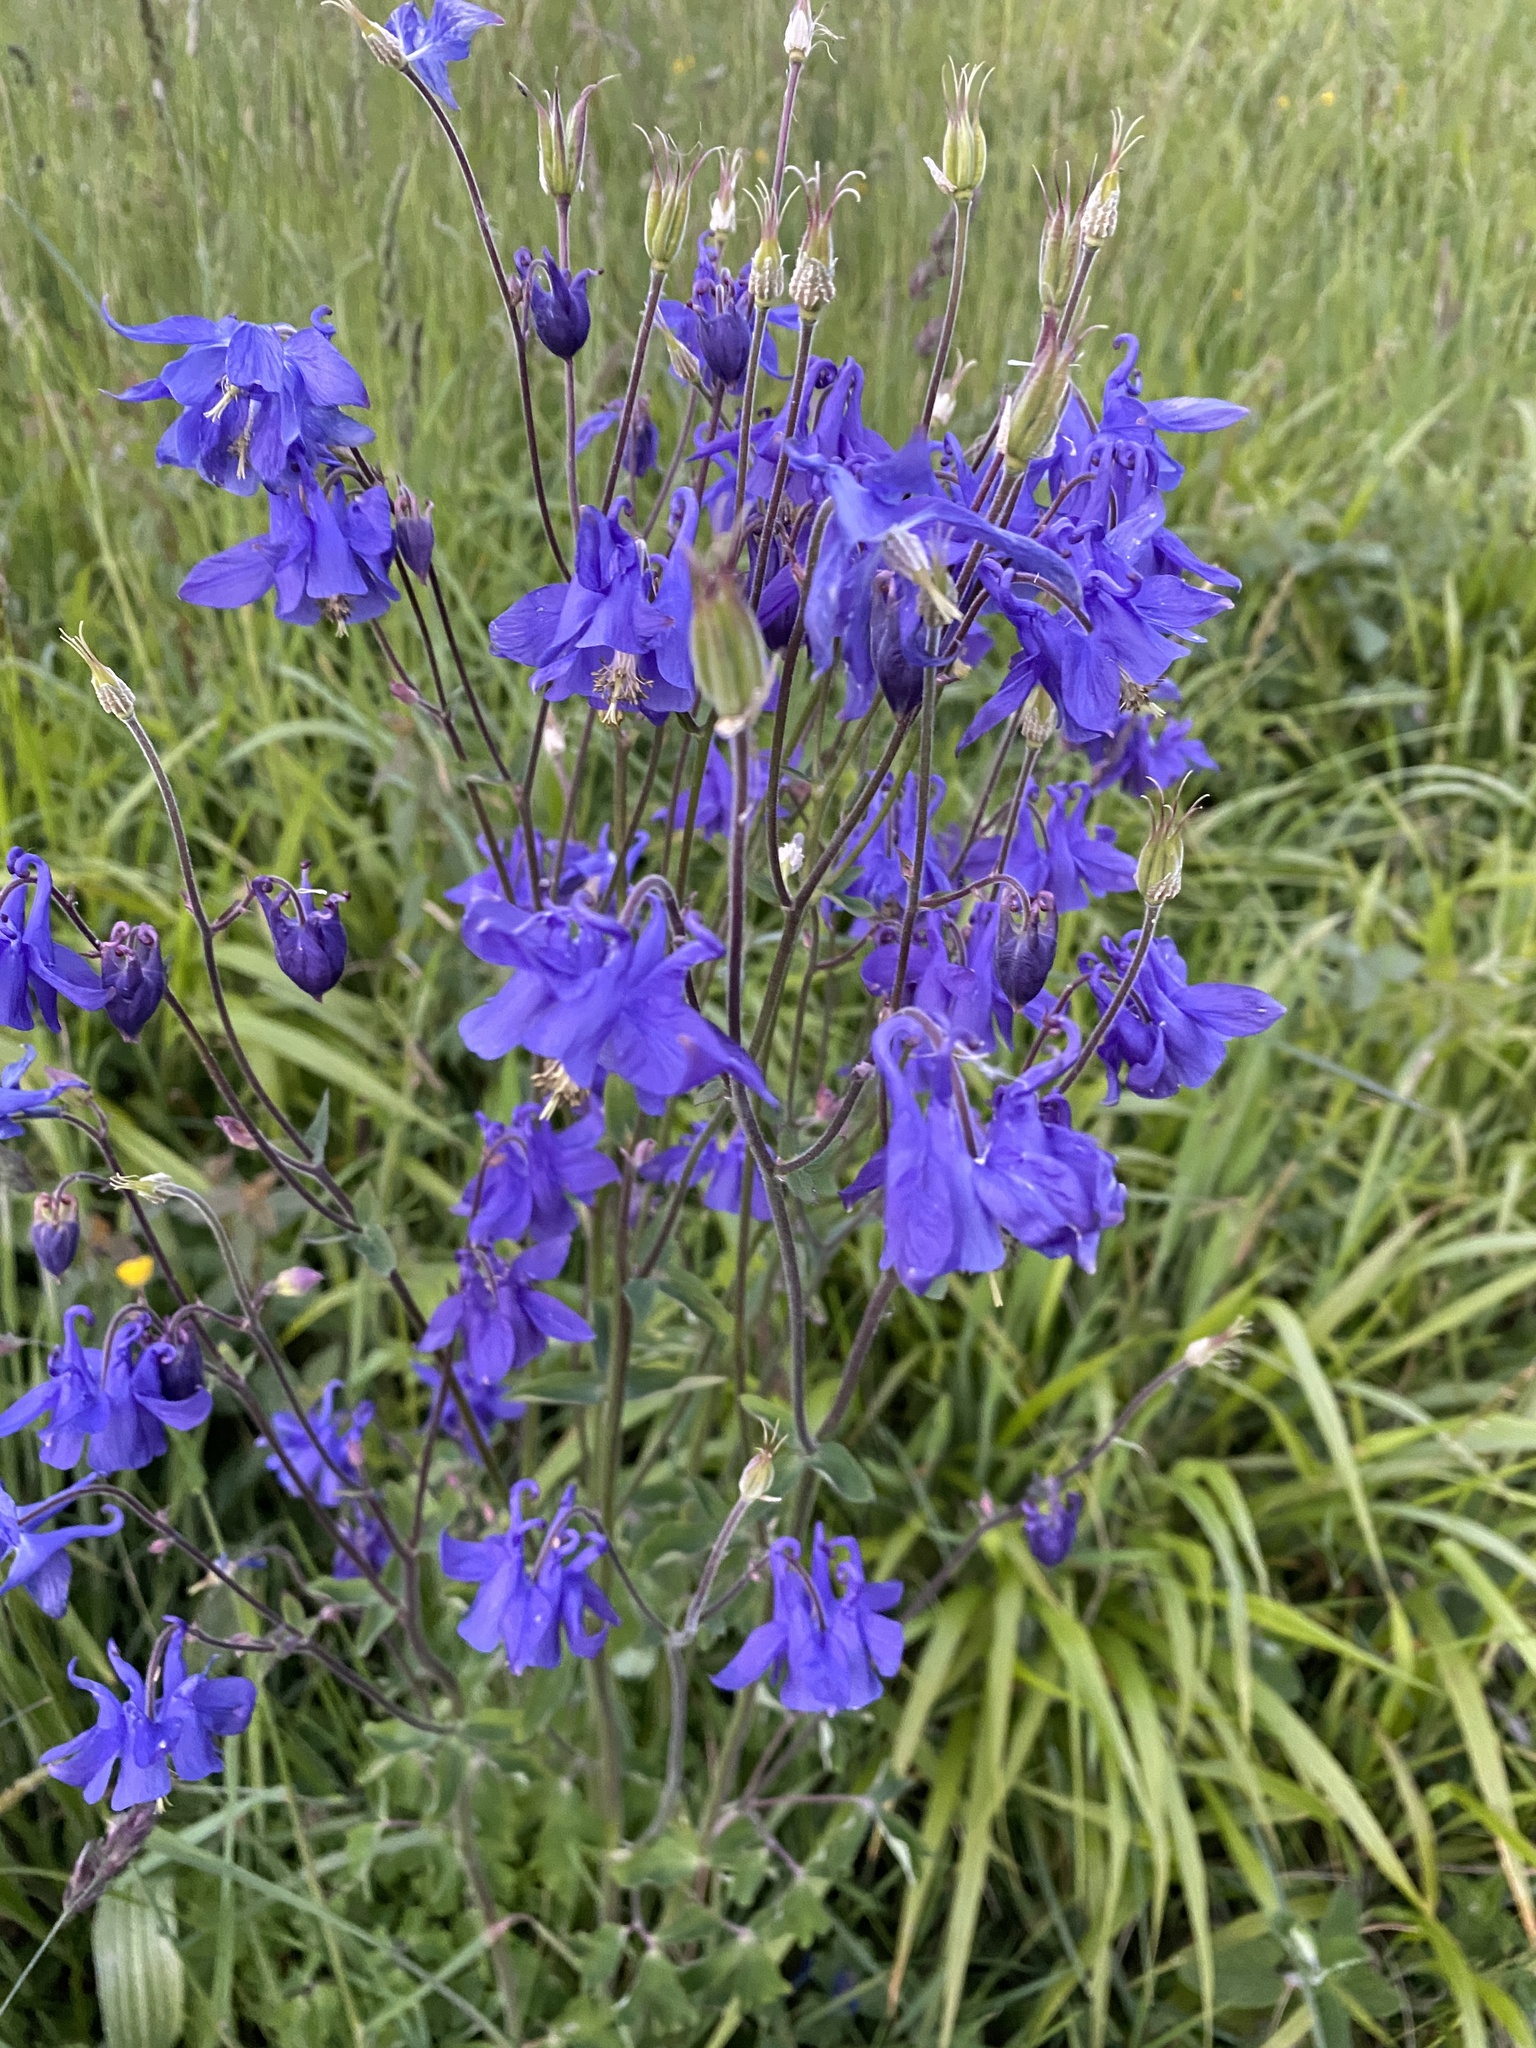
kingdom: Plantae
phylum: Tracheophyta
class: Magnoliopsida
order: Ranunculales
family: Ranunculaceae
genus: Aquilegia
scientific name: Aquilegia vulgaris
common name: Columbine
